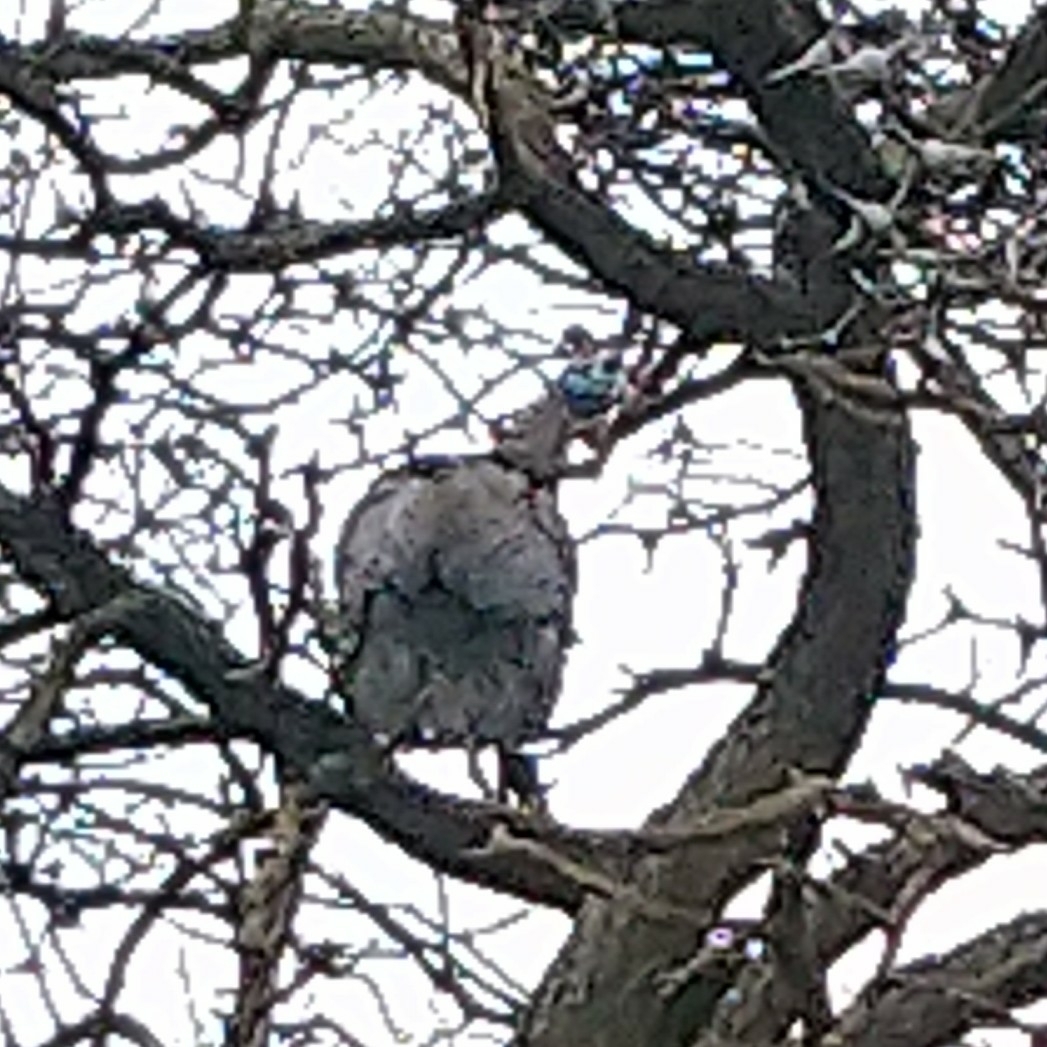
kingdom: Animalia
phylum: Chordata
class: Aves
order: Galliformes
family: Numididae
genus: Numida
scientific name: Numida meleagris
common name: Helmeted guineafowl
